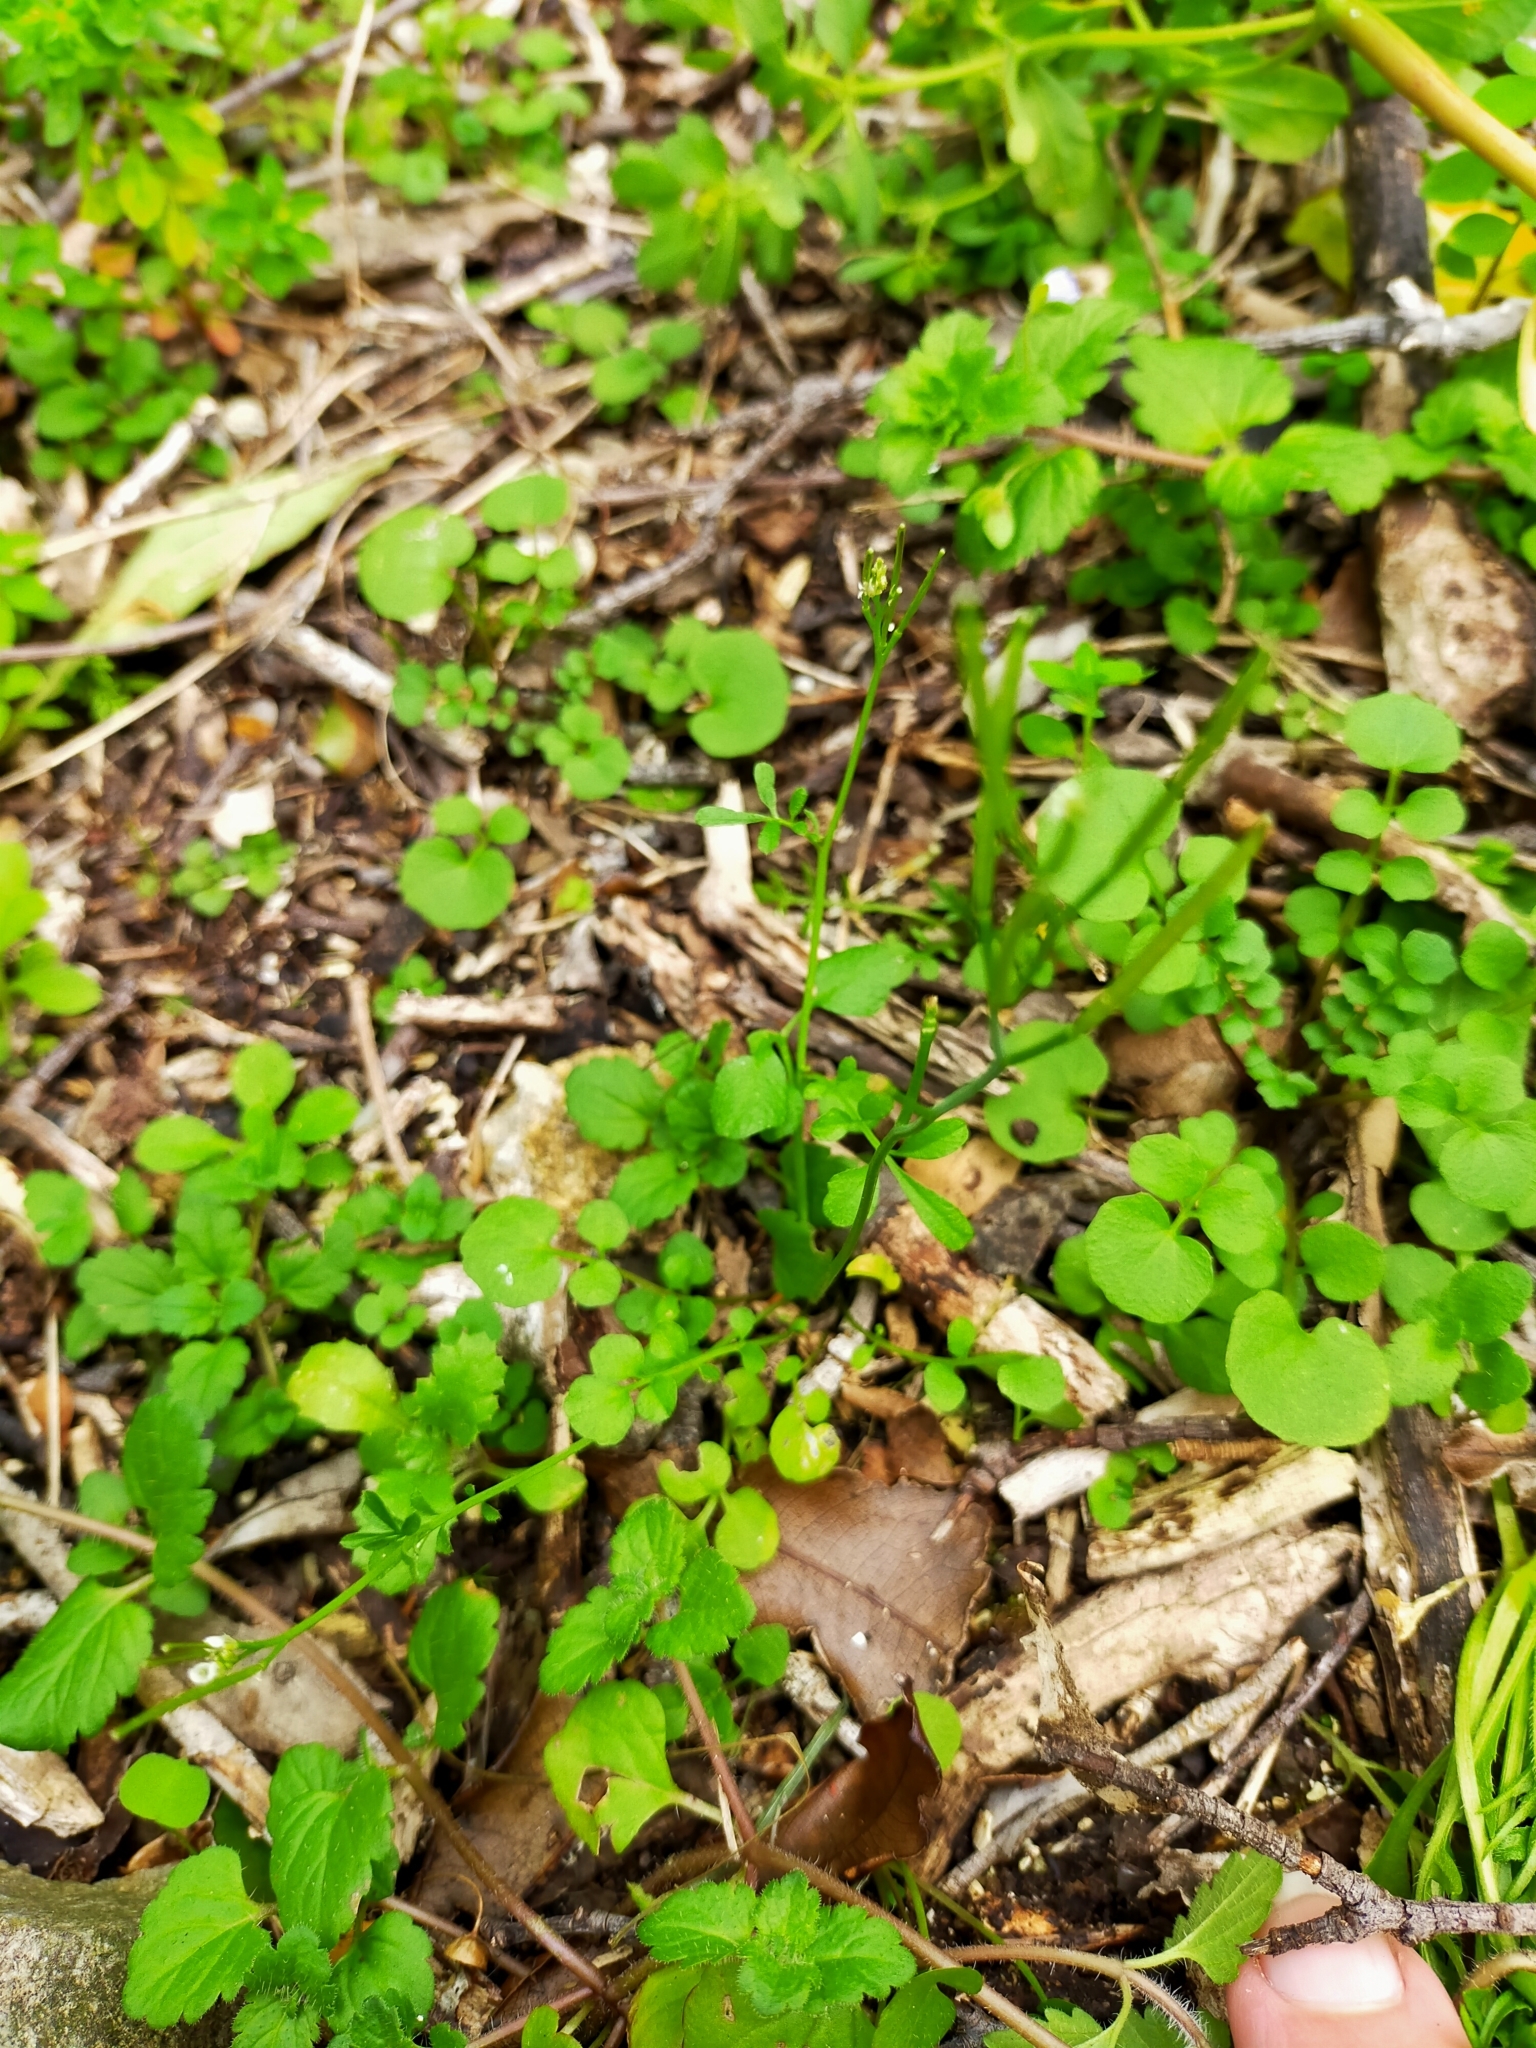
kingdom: Plantae
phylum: Tracheophyta
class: Magnoliopsida
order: Brassicales
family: Brassicaceae
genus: Cardamine
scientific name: Cardamine hirsuta
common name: Hairy bittercress
